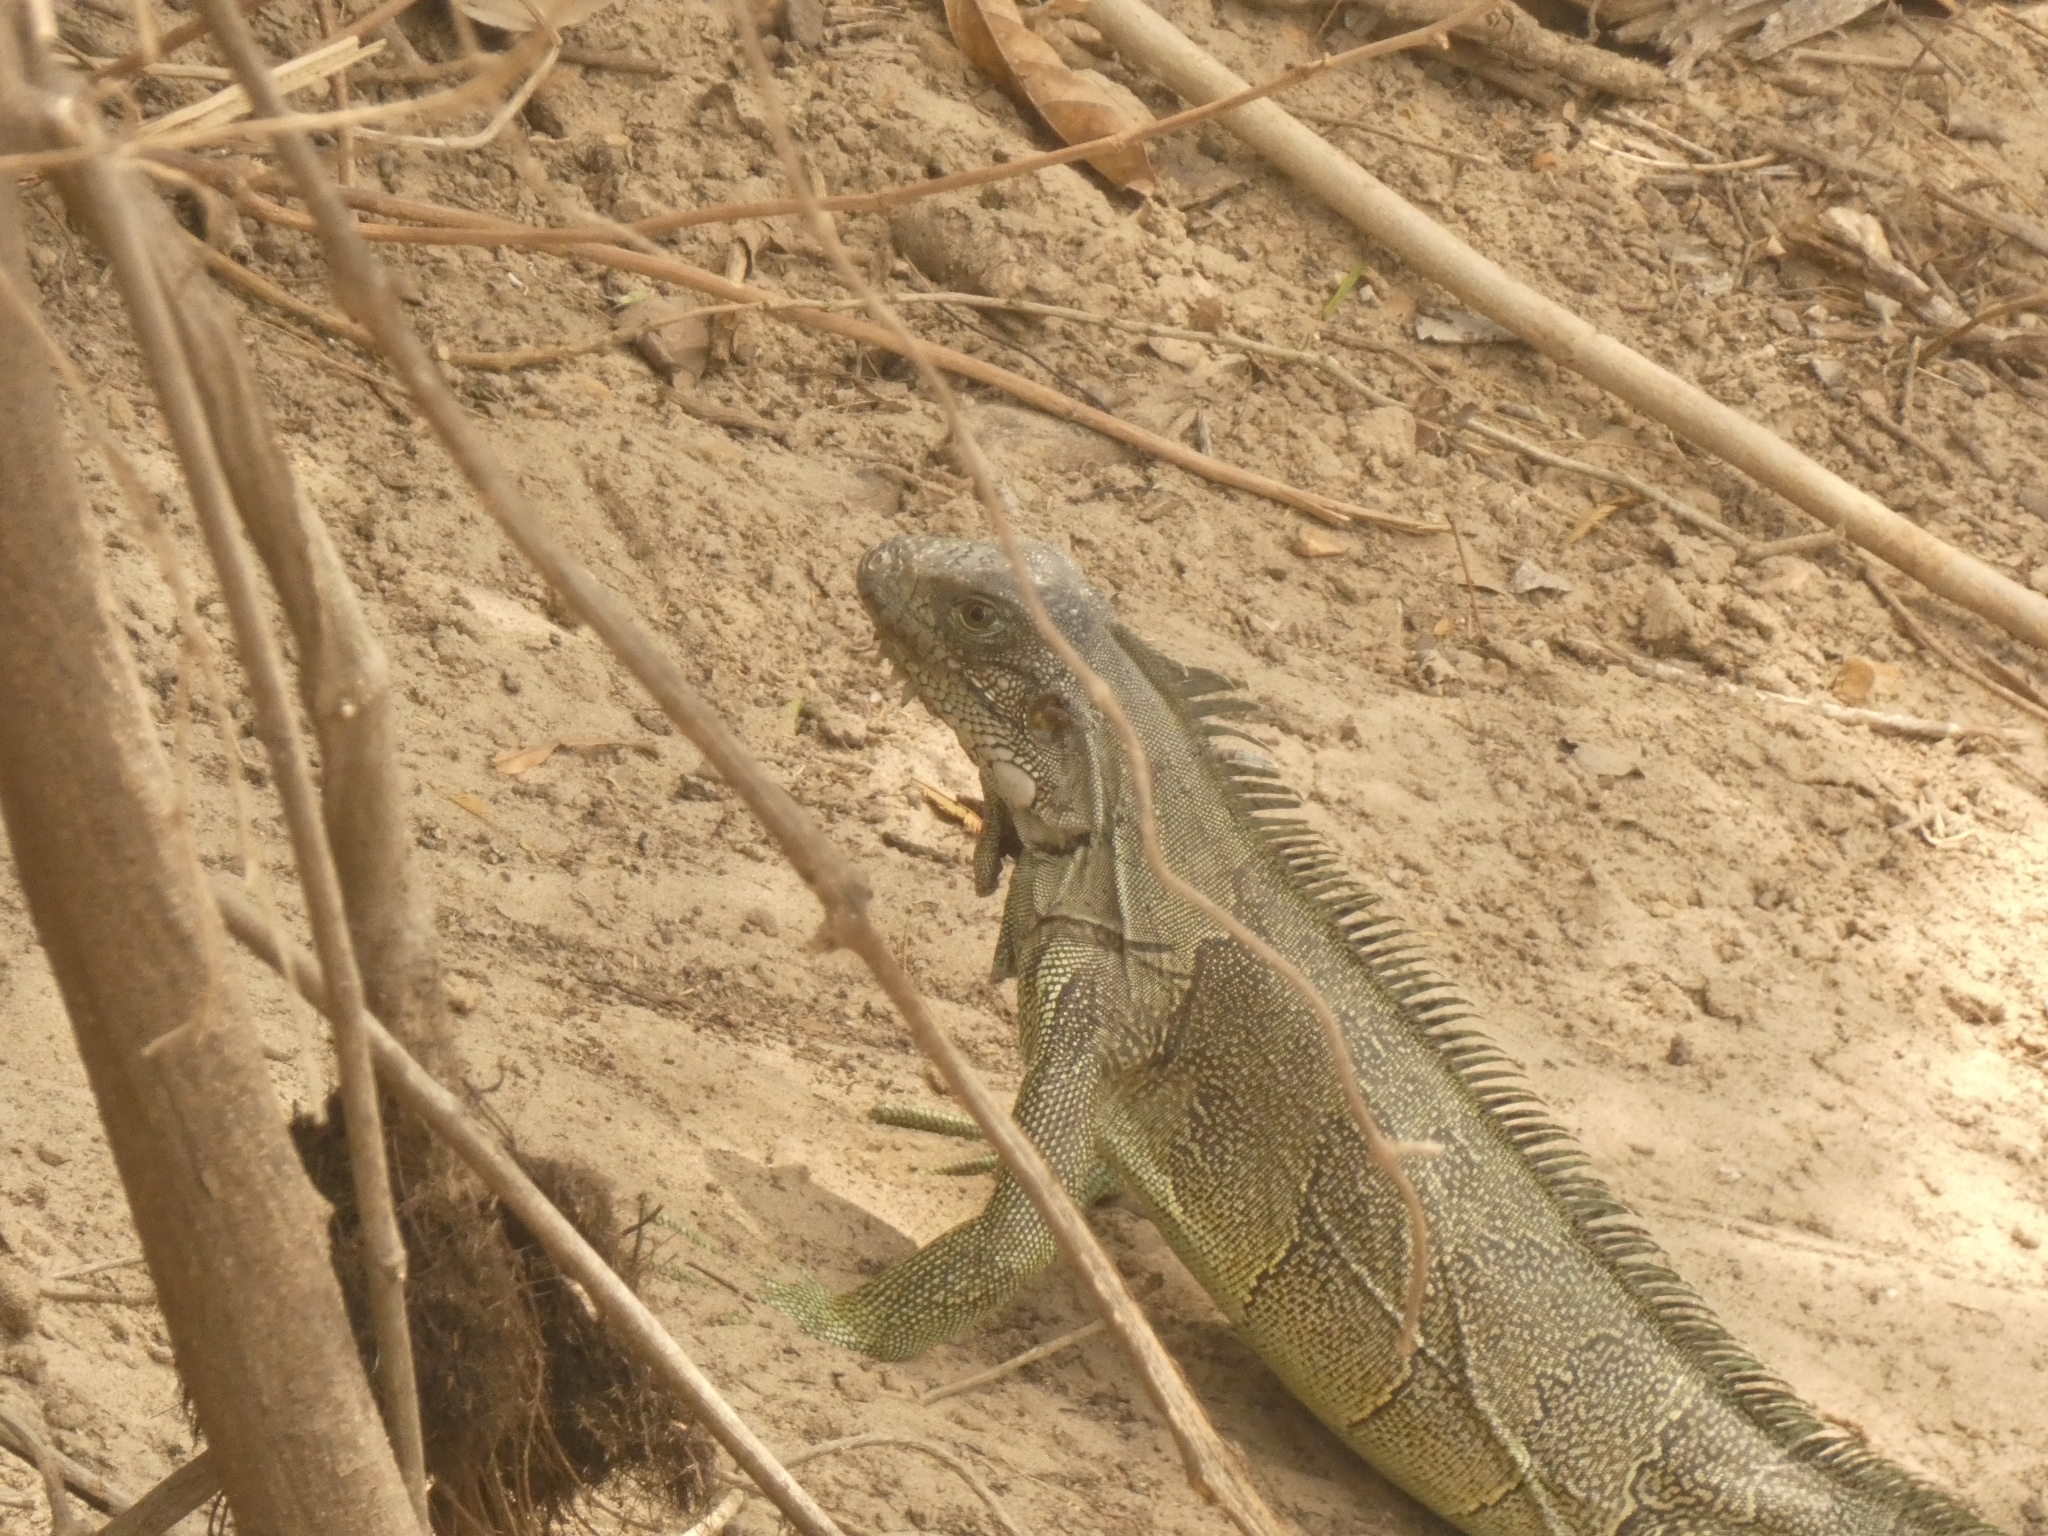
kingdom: Animalia
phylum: Chordata
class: Squamata
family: Iguanidae
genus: Iguana
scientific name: Iguana iguana
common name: Green iguana
